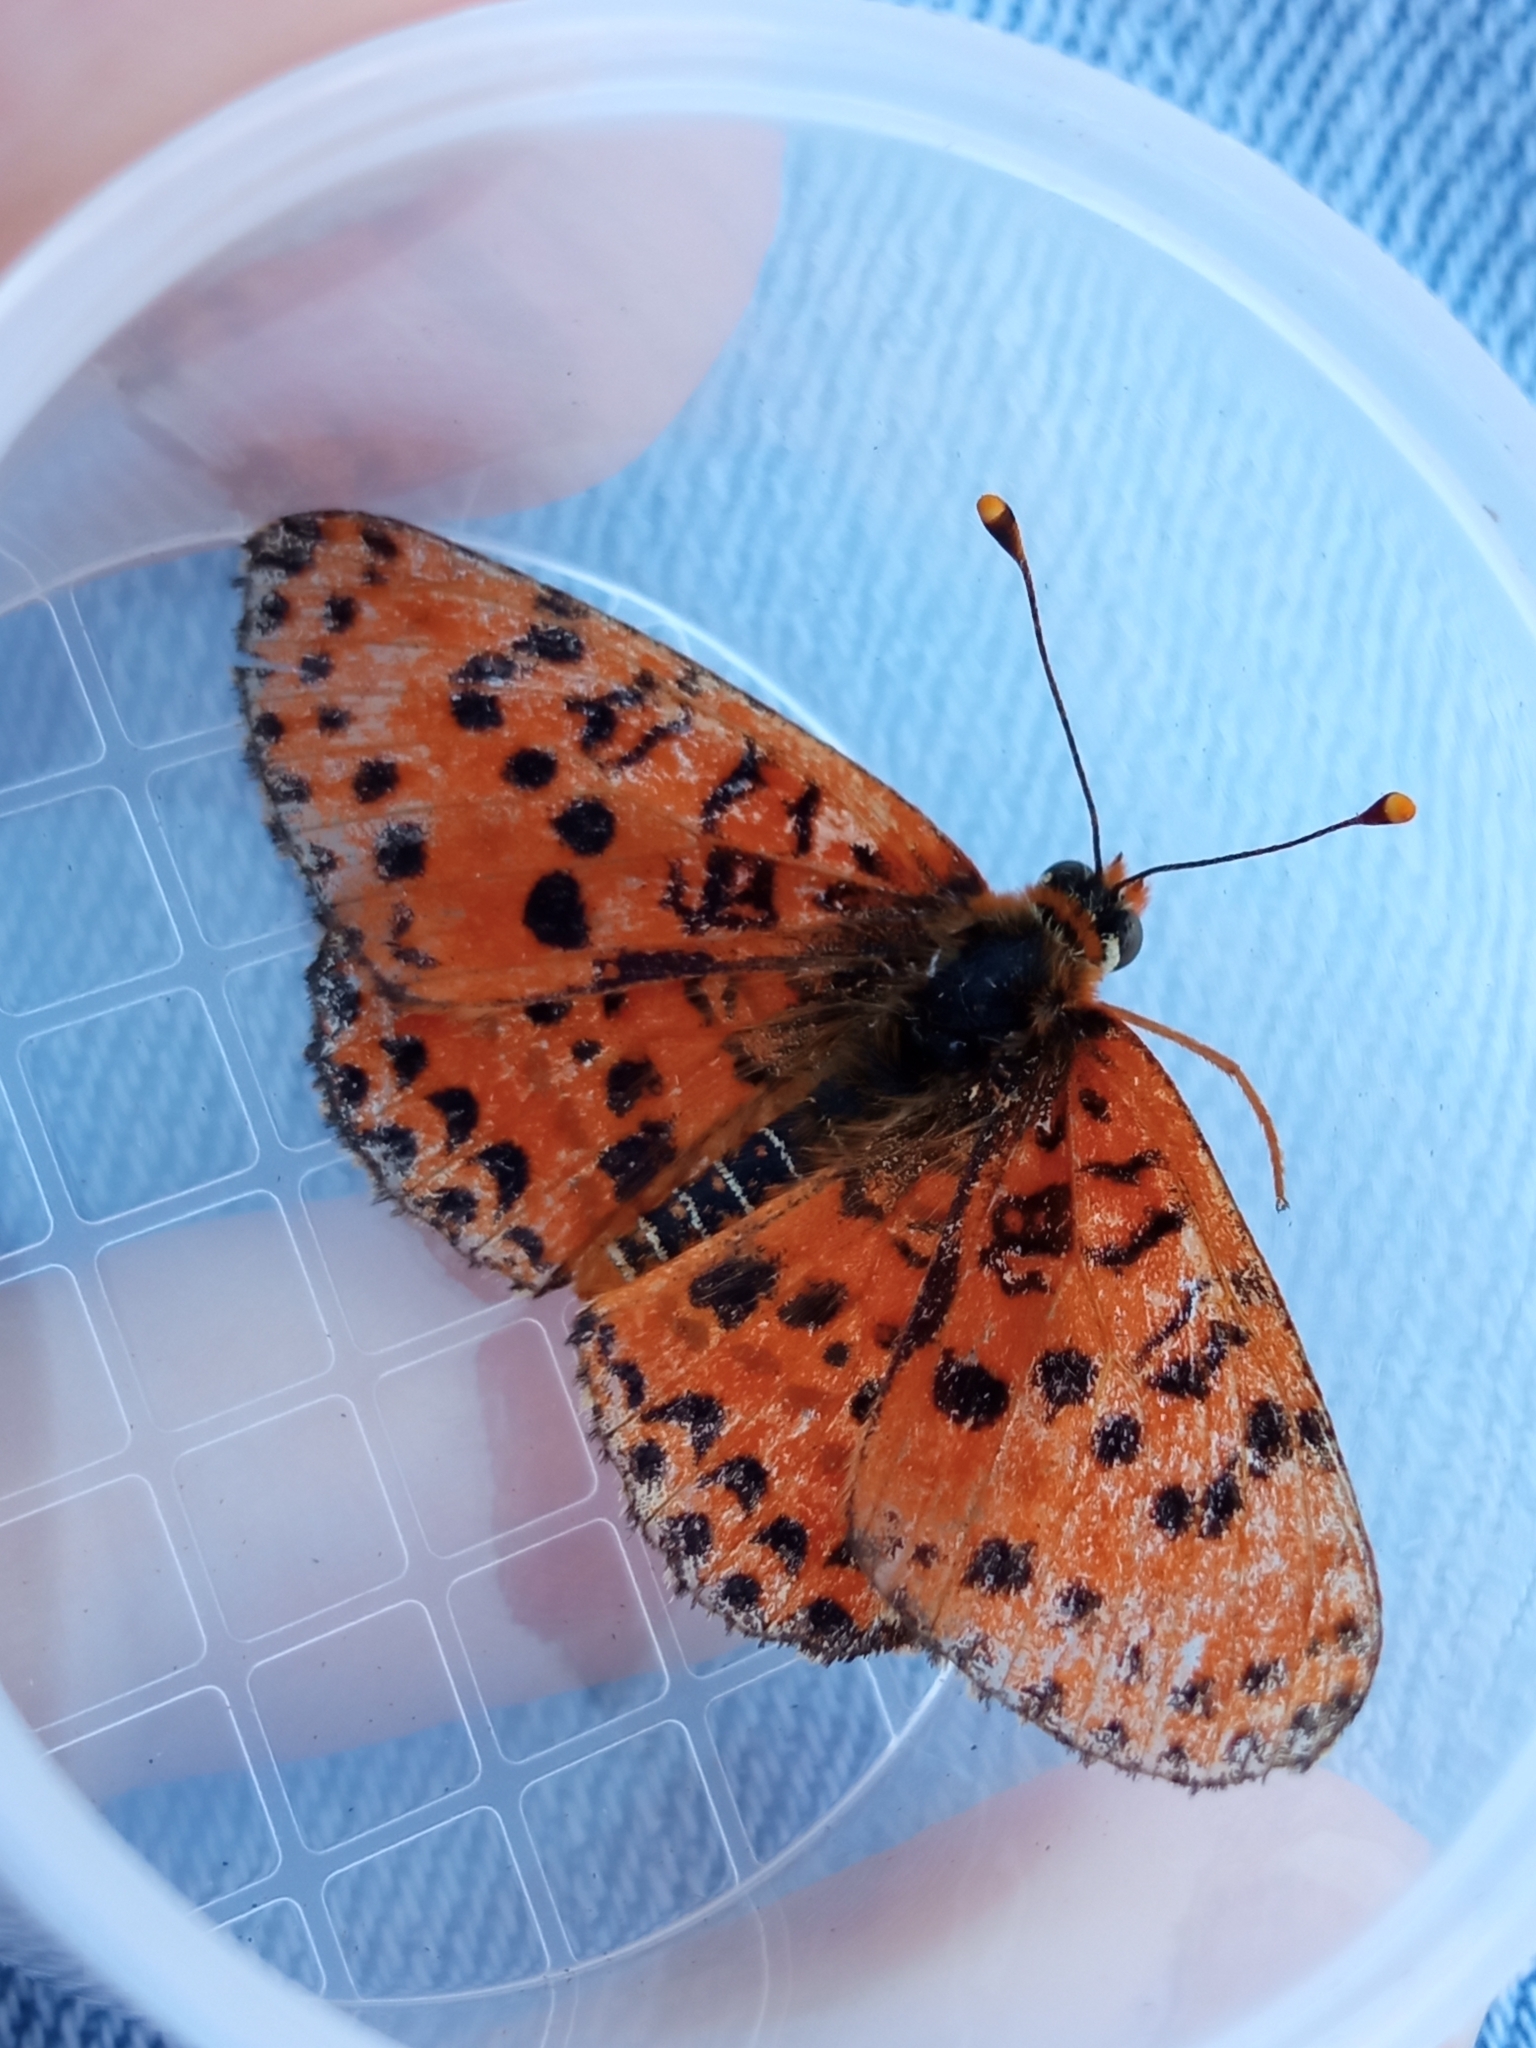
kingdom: Animalia
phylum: Arthropoda
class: Insecta
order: Lepidoptera
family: Nymphalidae
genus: Melitaea
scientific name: Melitaea didyma
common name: Spotted fritillary
